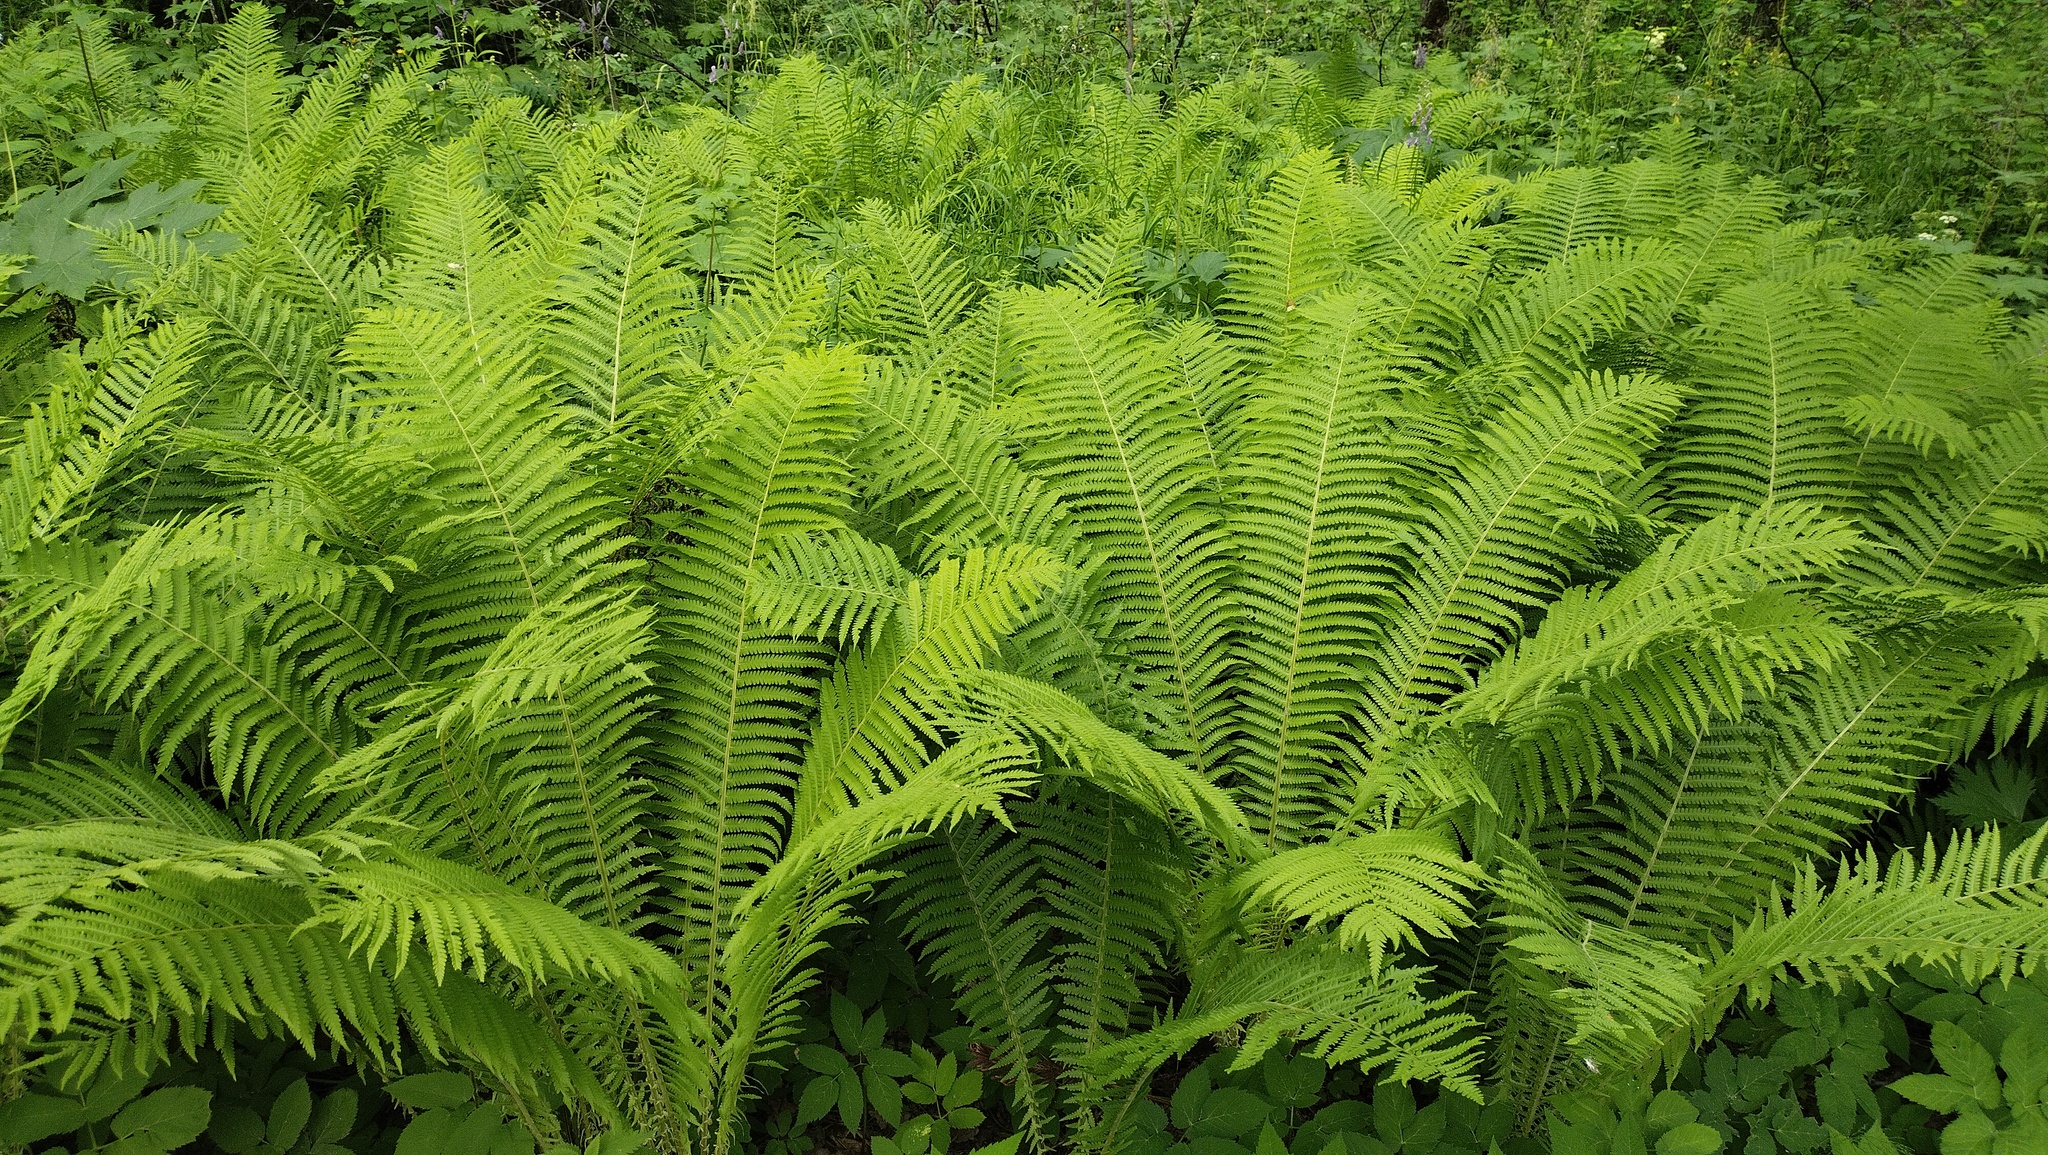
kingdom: Plantae
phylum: Tracheophyta
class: Polypodiopsida
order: Polypodiales
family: Onocleaceae
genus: Matteuccia
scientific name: Matteuccia struthiopteris
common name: Ostrich fern
